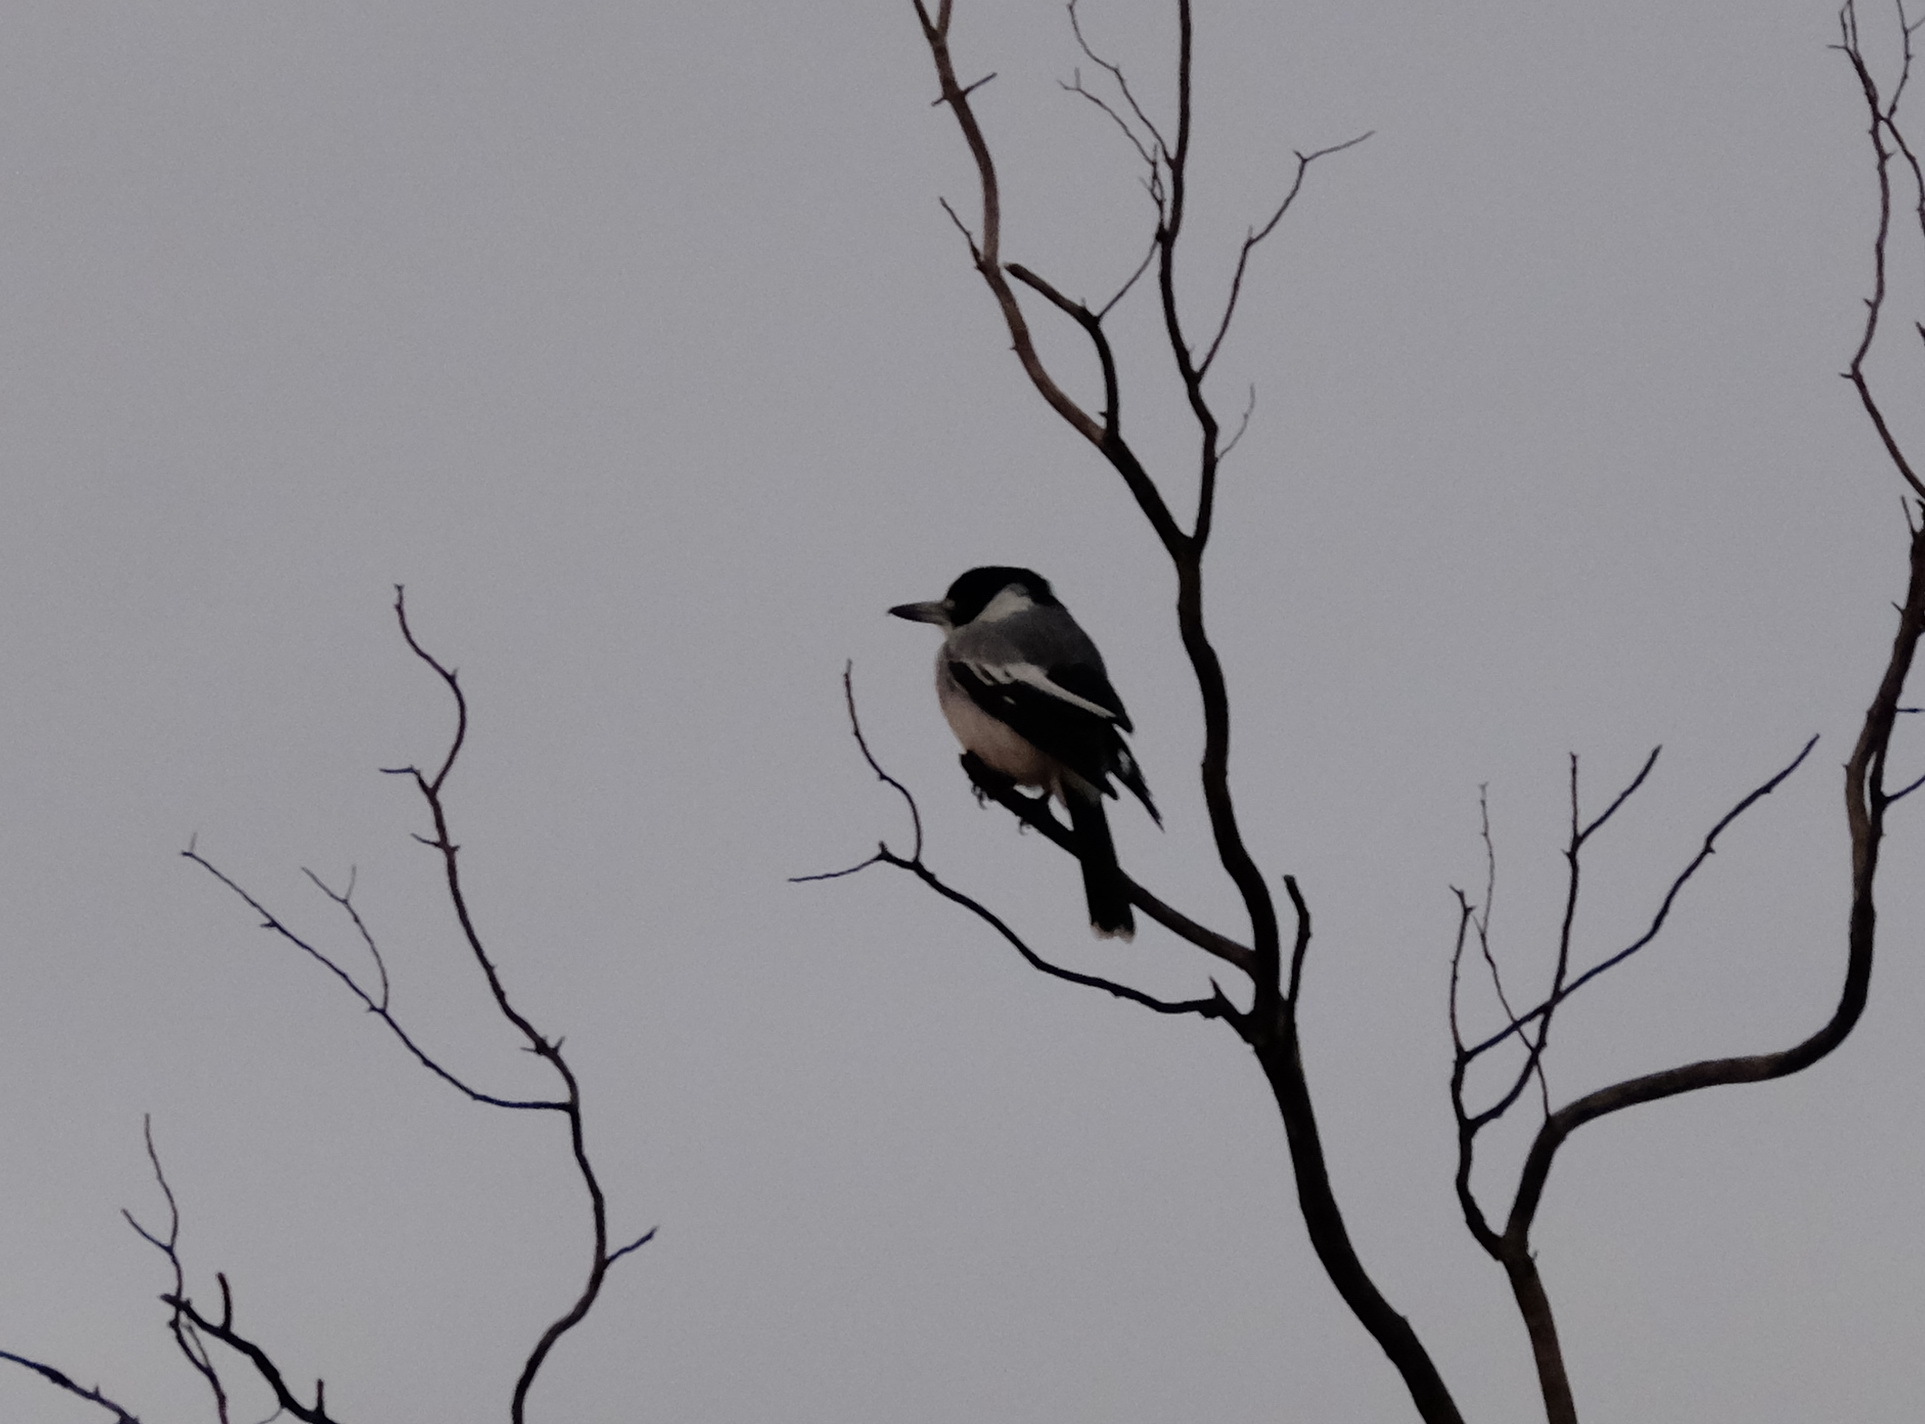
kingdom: Animalia
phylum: Chordata
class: Aves
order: Passeriformes
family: Cracticidae
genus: Cracticus
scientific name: Cracticus torquatus
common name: Grey butcherbird
